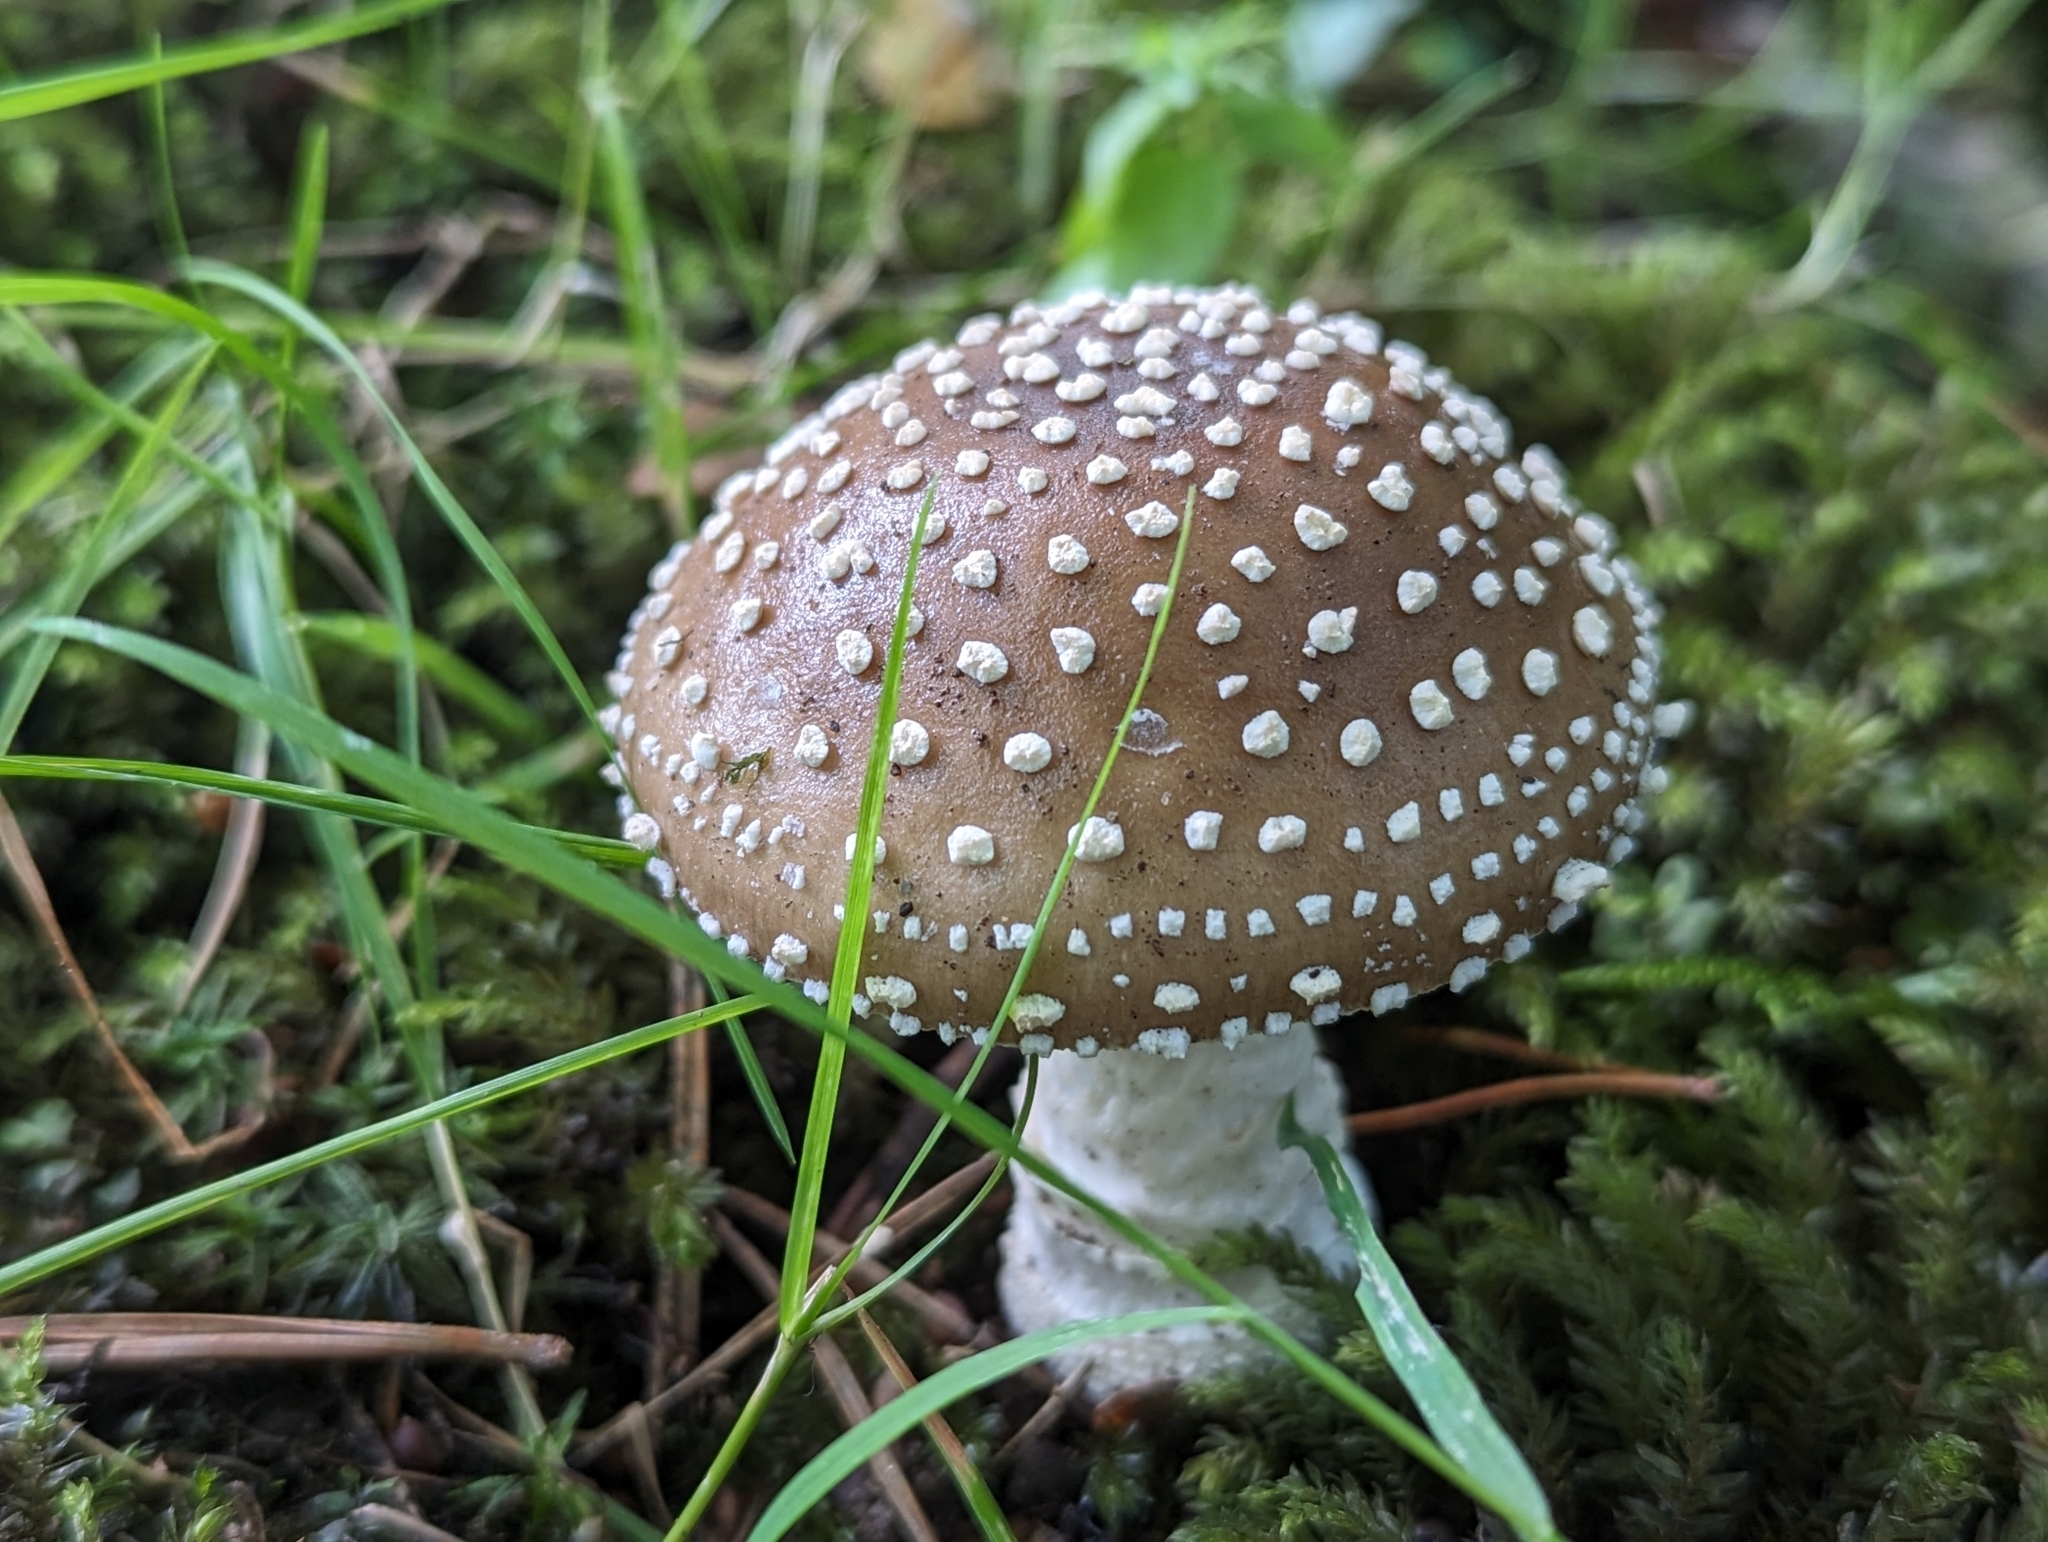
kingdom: Fungi
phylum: Basidiomycota
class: Agaricomycetes
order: Agaricales
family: Amanitaceae
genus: Amanita
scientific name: Amanita pantherina
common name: Panthercap
